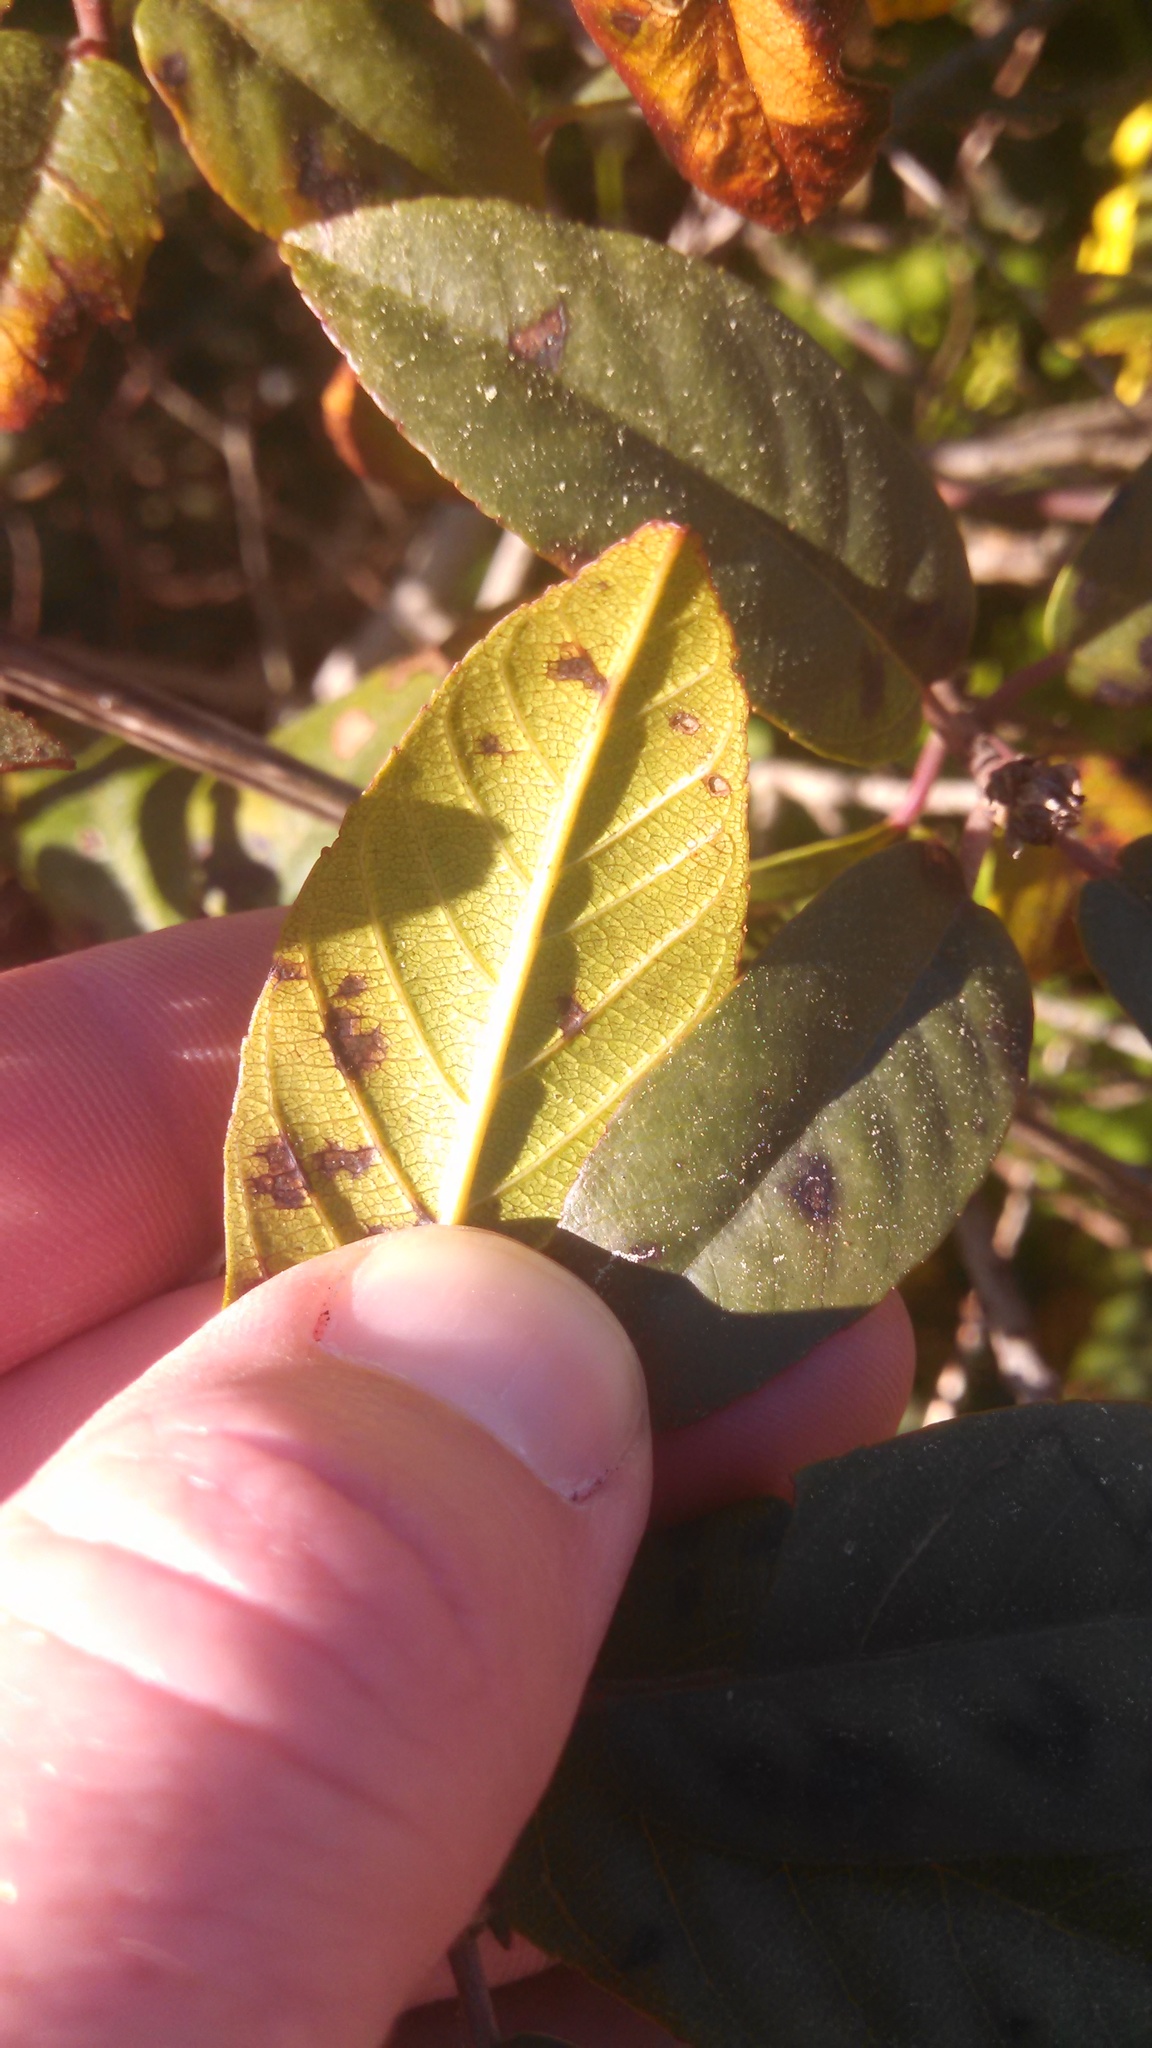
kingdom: Plantae
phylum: Tracheophyta
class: Magnoliopsida
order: Rosales
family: Rhamnaceae
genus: Frangula
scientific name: Frangula californica
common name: California buckthorn
